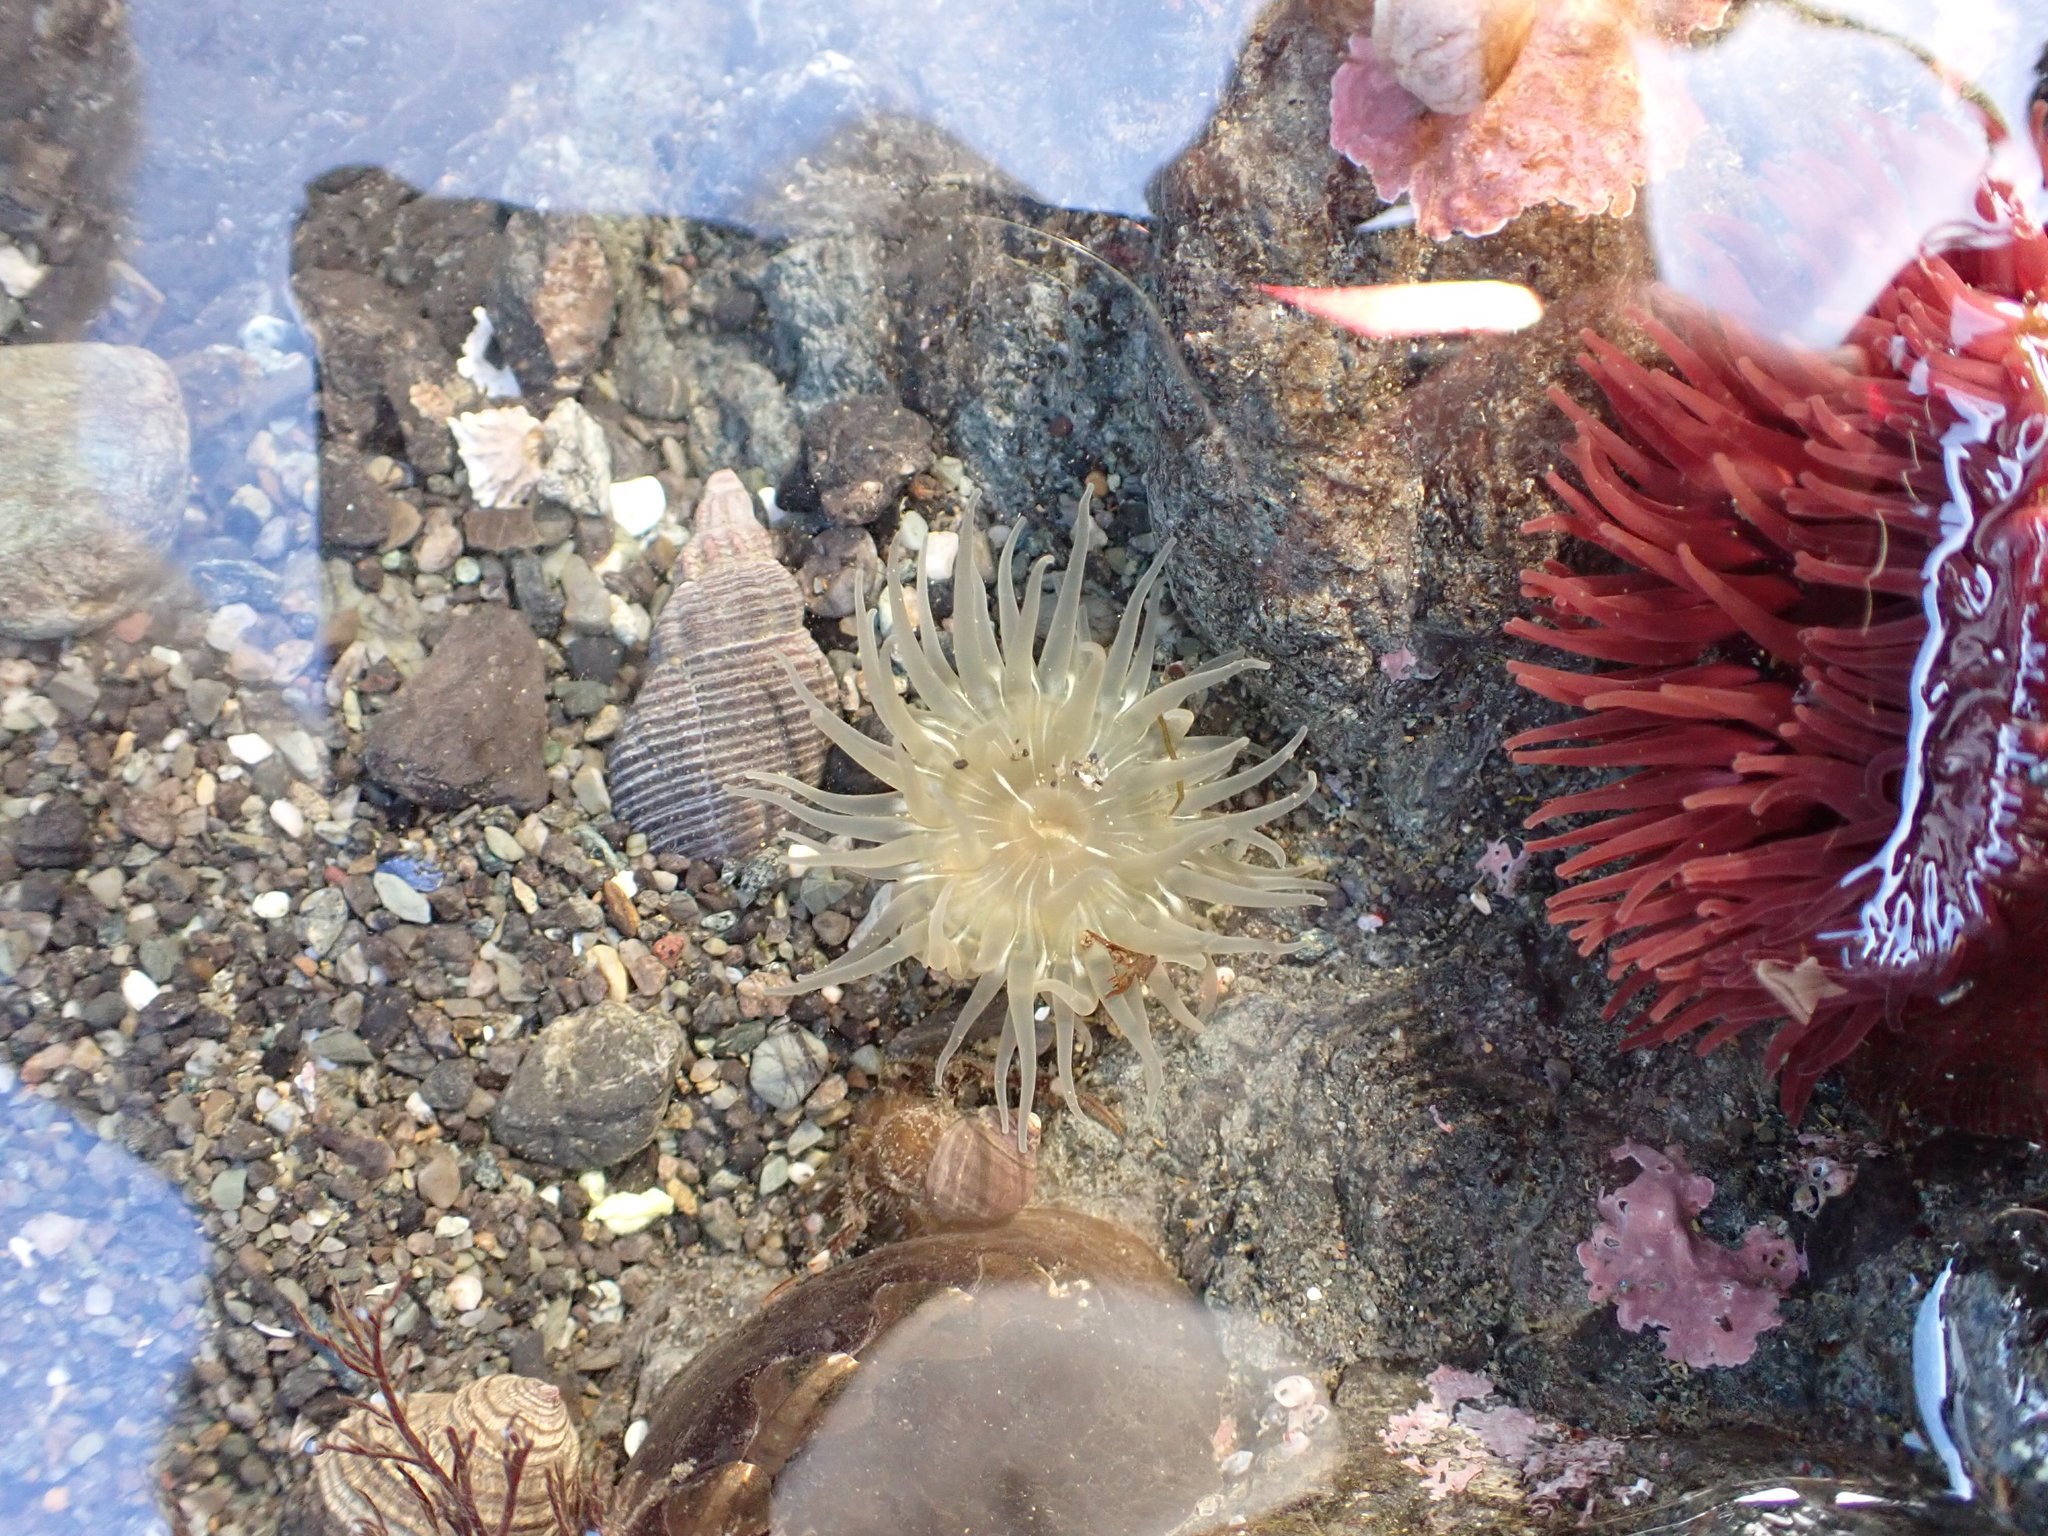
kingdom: Animalia
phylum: Cnidaria
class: Anthozoa
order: Actiniaria
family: Actiniidae
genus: Aulactinia
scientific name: Aulactinia incubans
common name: Incubating anemone
